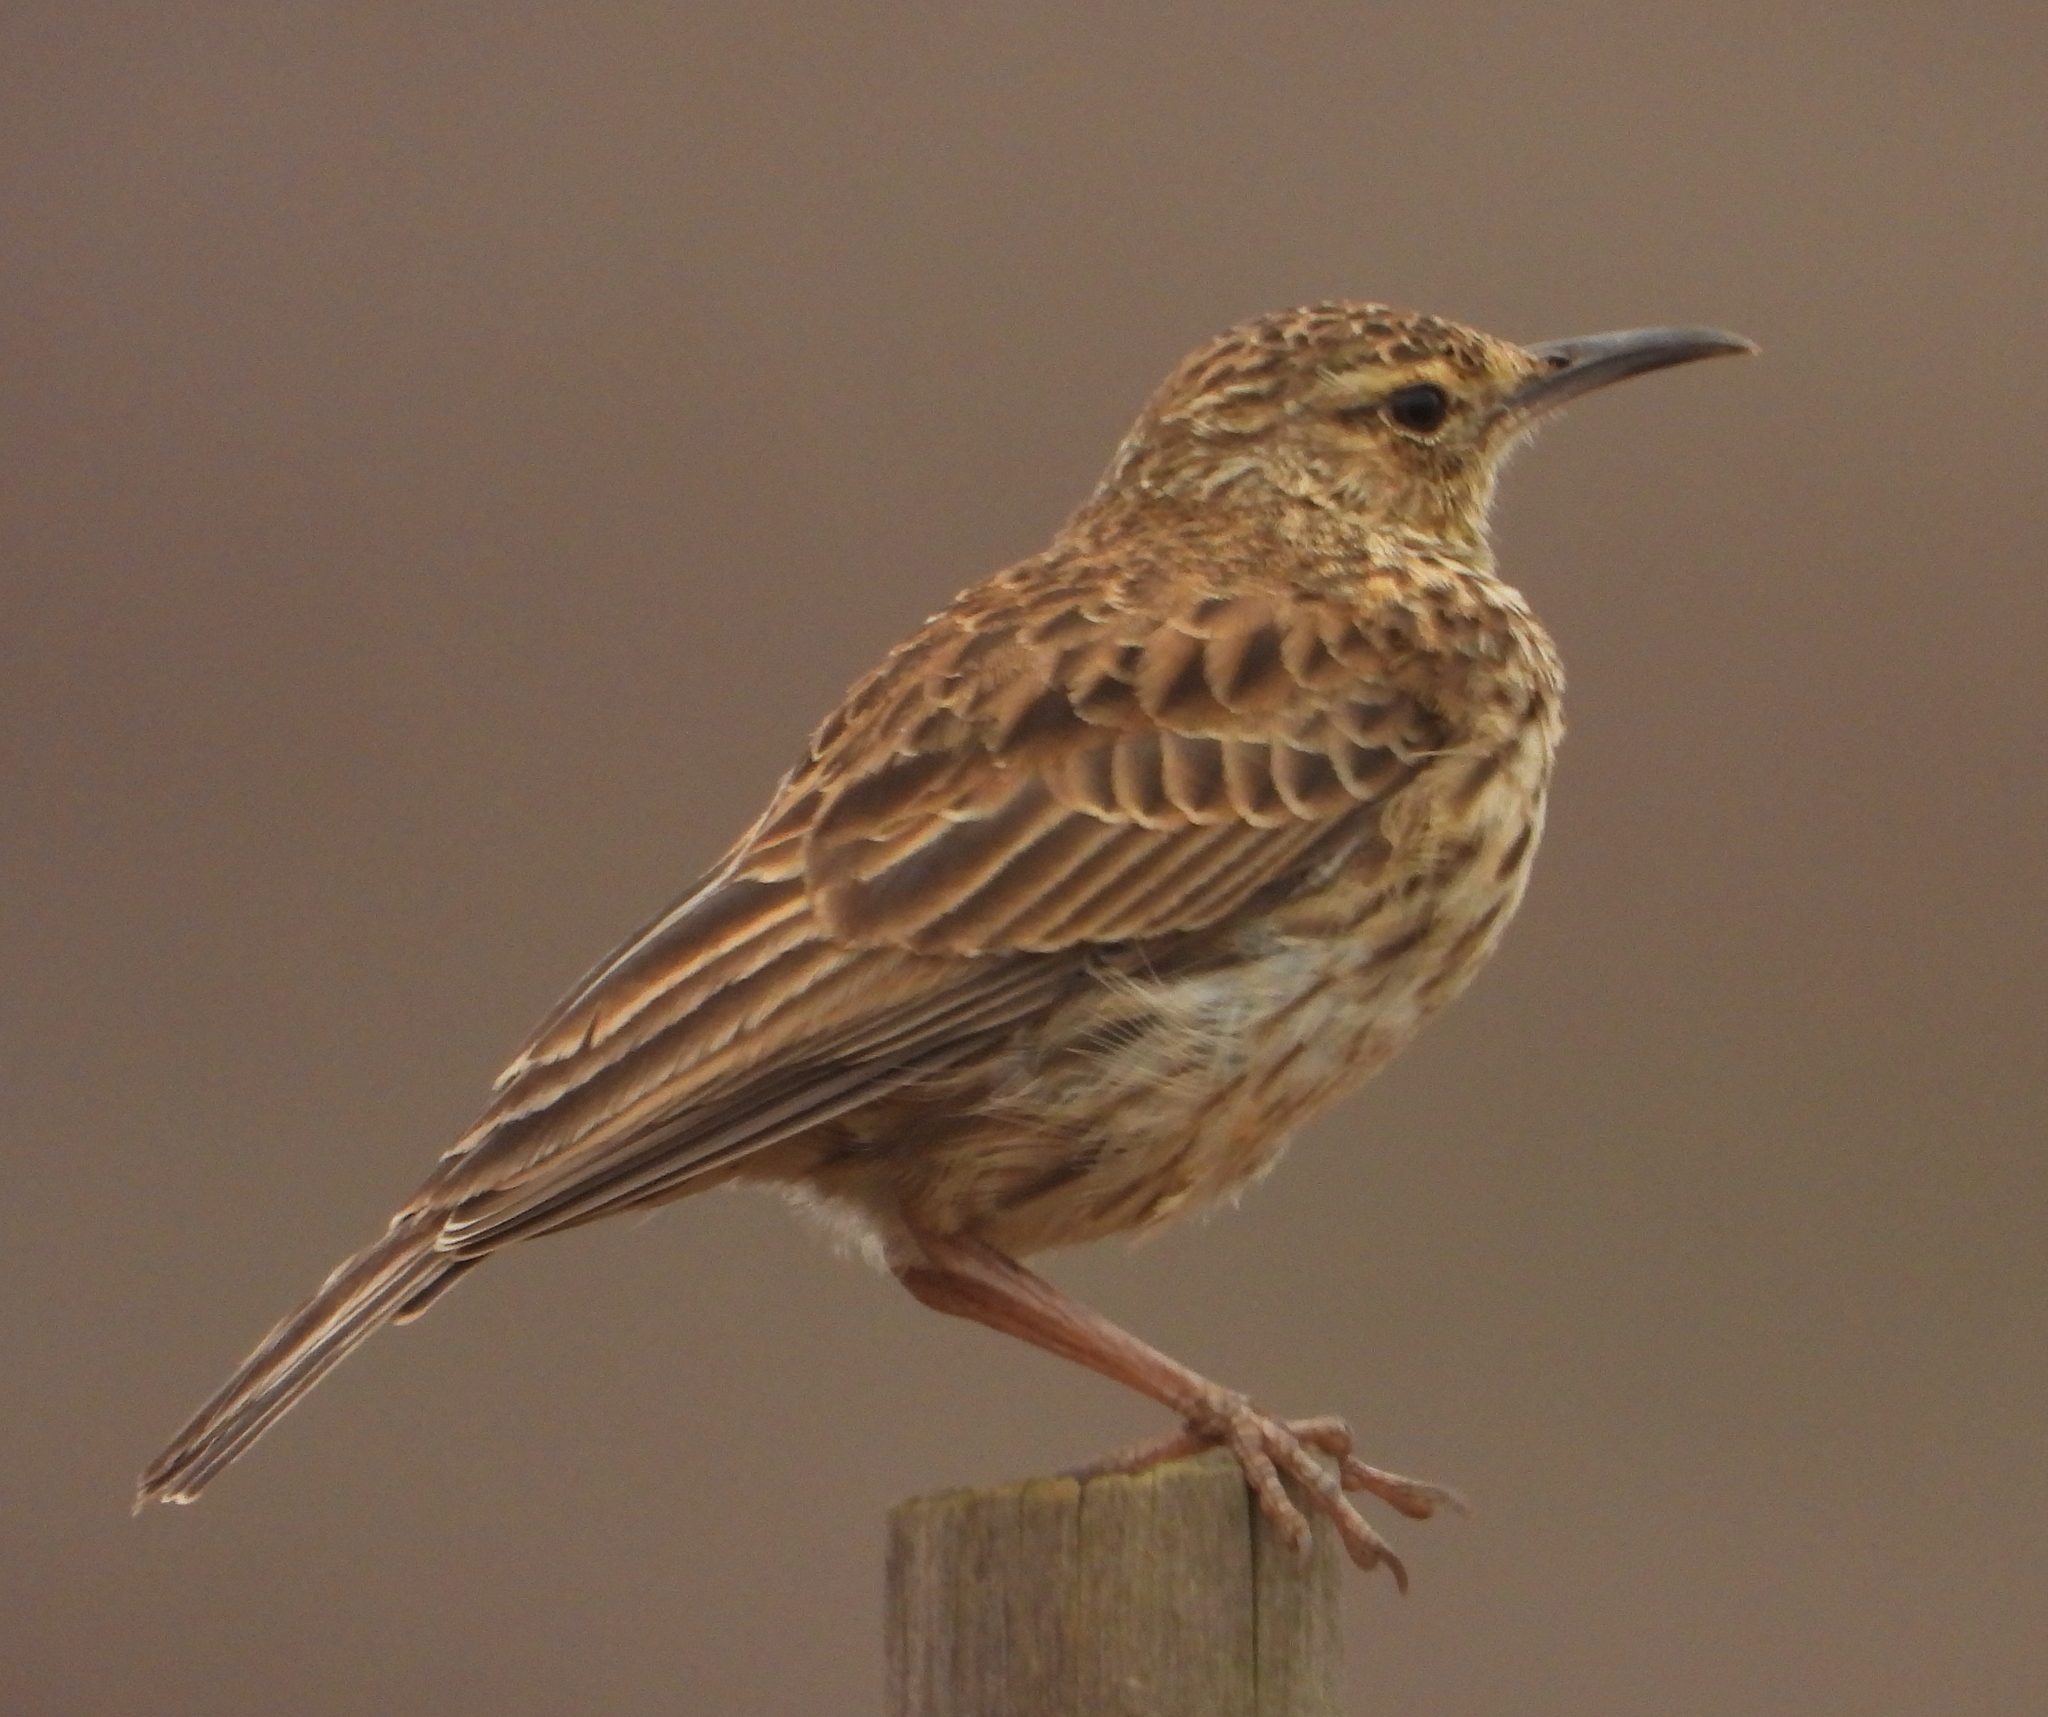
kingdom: Animalia
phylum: Chordata
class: Aves
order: Passeriformes
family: Alaudidae
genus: Certhilauda
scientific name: Certhilauda curvirostris
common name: Cape long-billed lark
